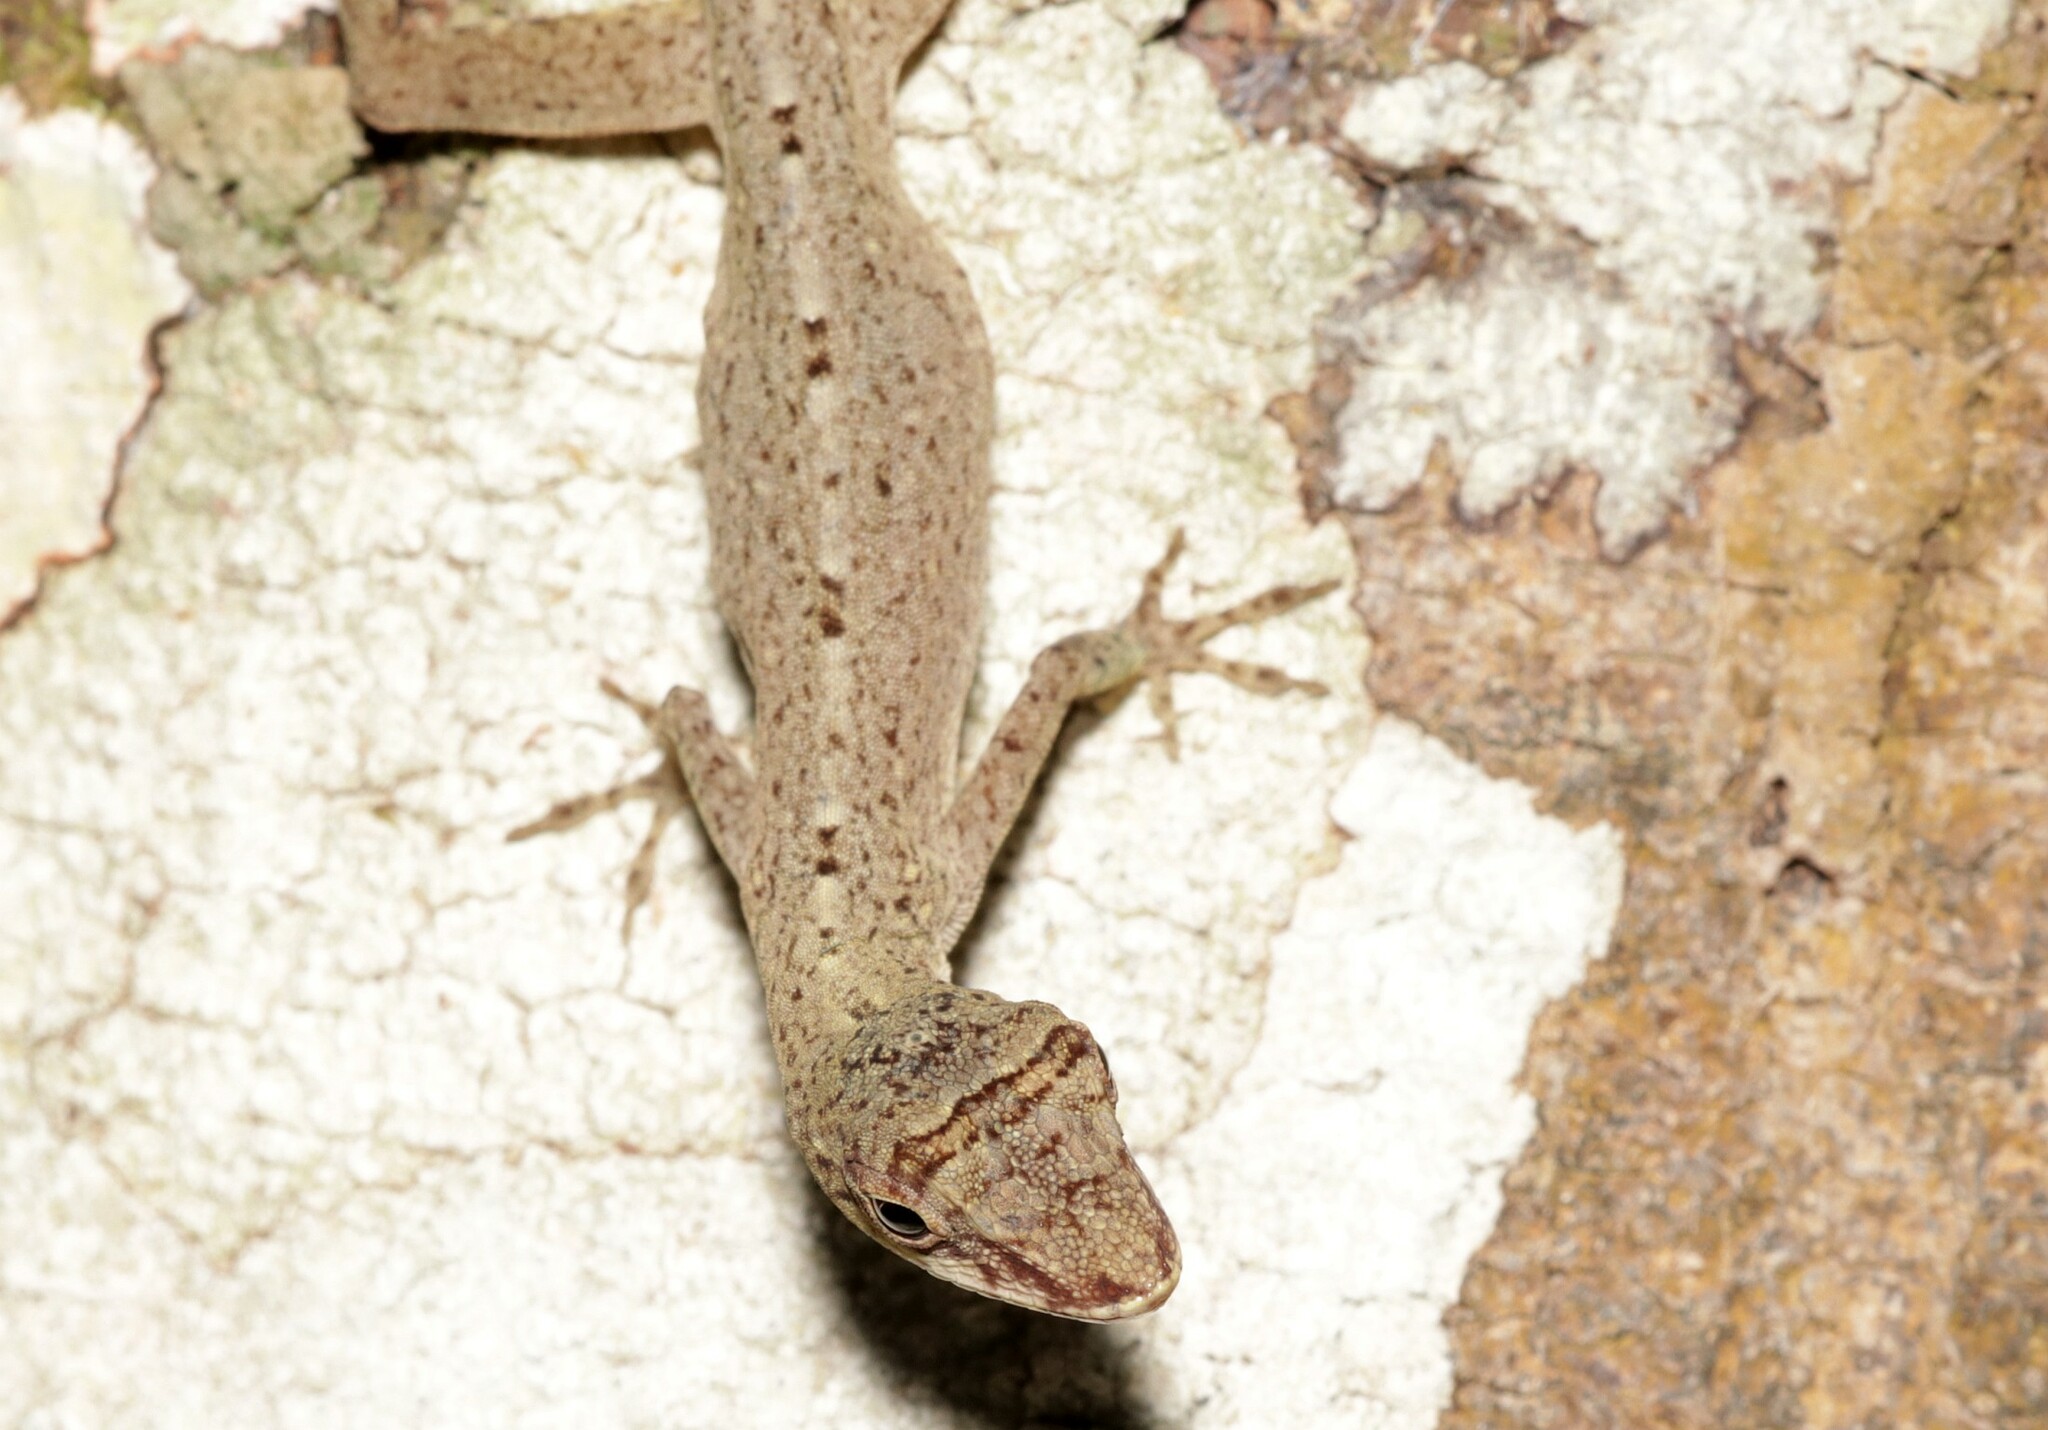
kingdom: Animalia
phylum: Chordata
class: Squamata
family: Dactyloidae
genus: Anolis
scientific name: Anolis fuscoauratus
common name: Brown-eared anole
